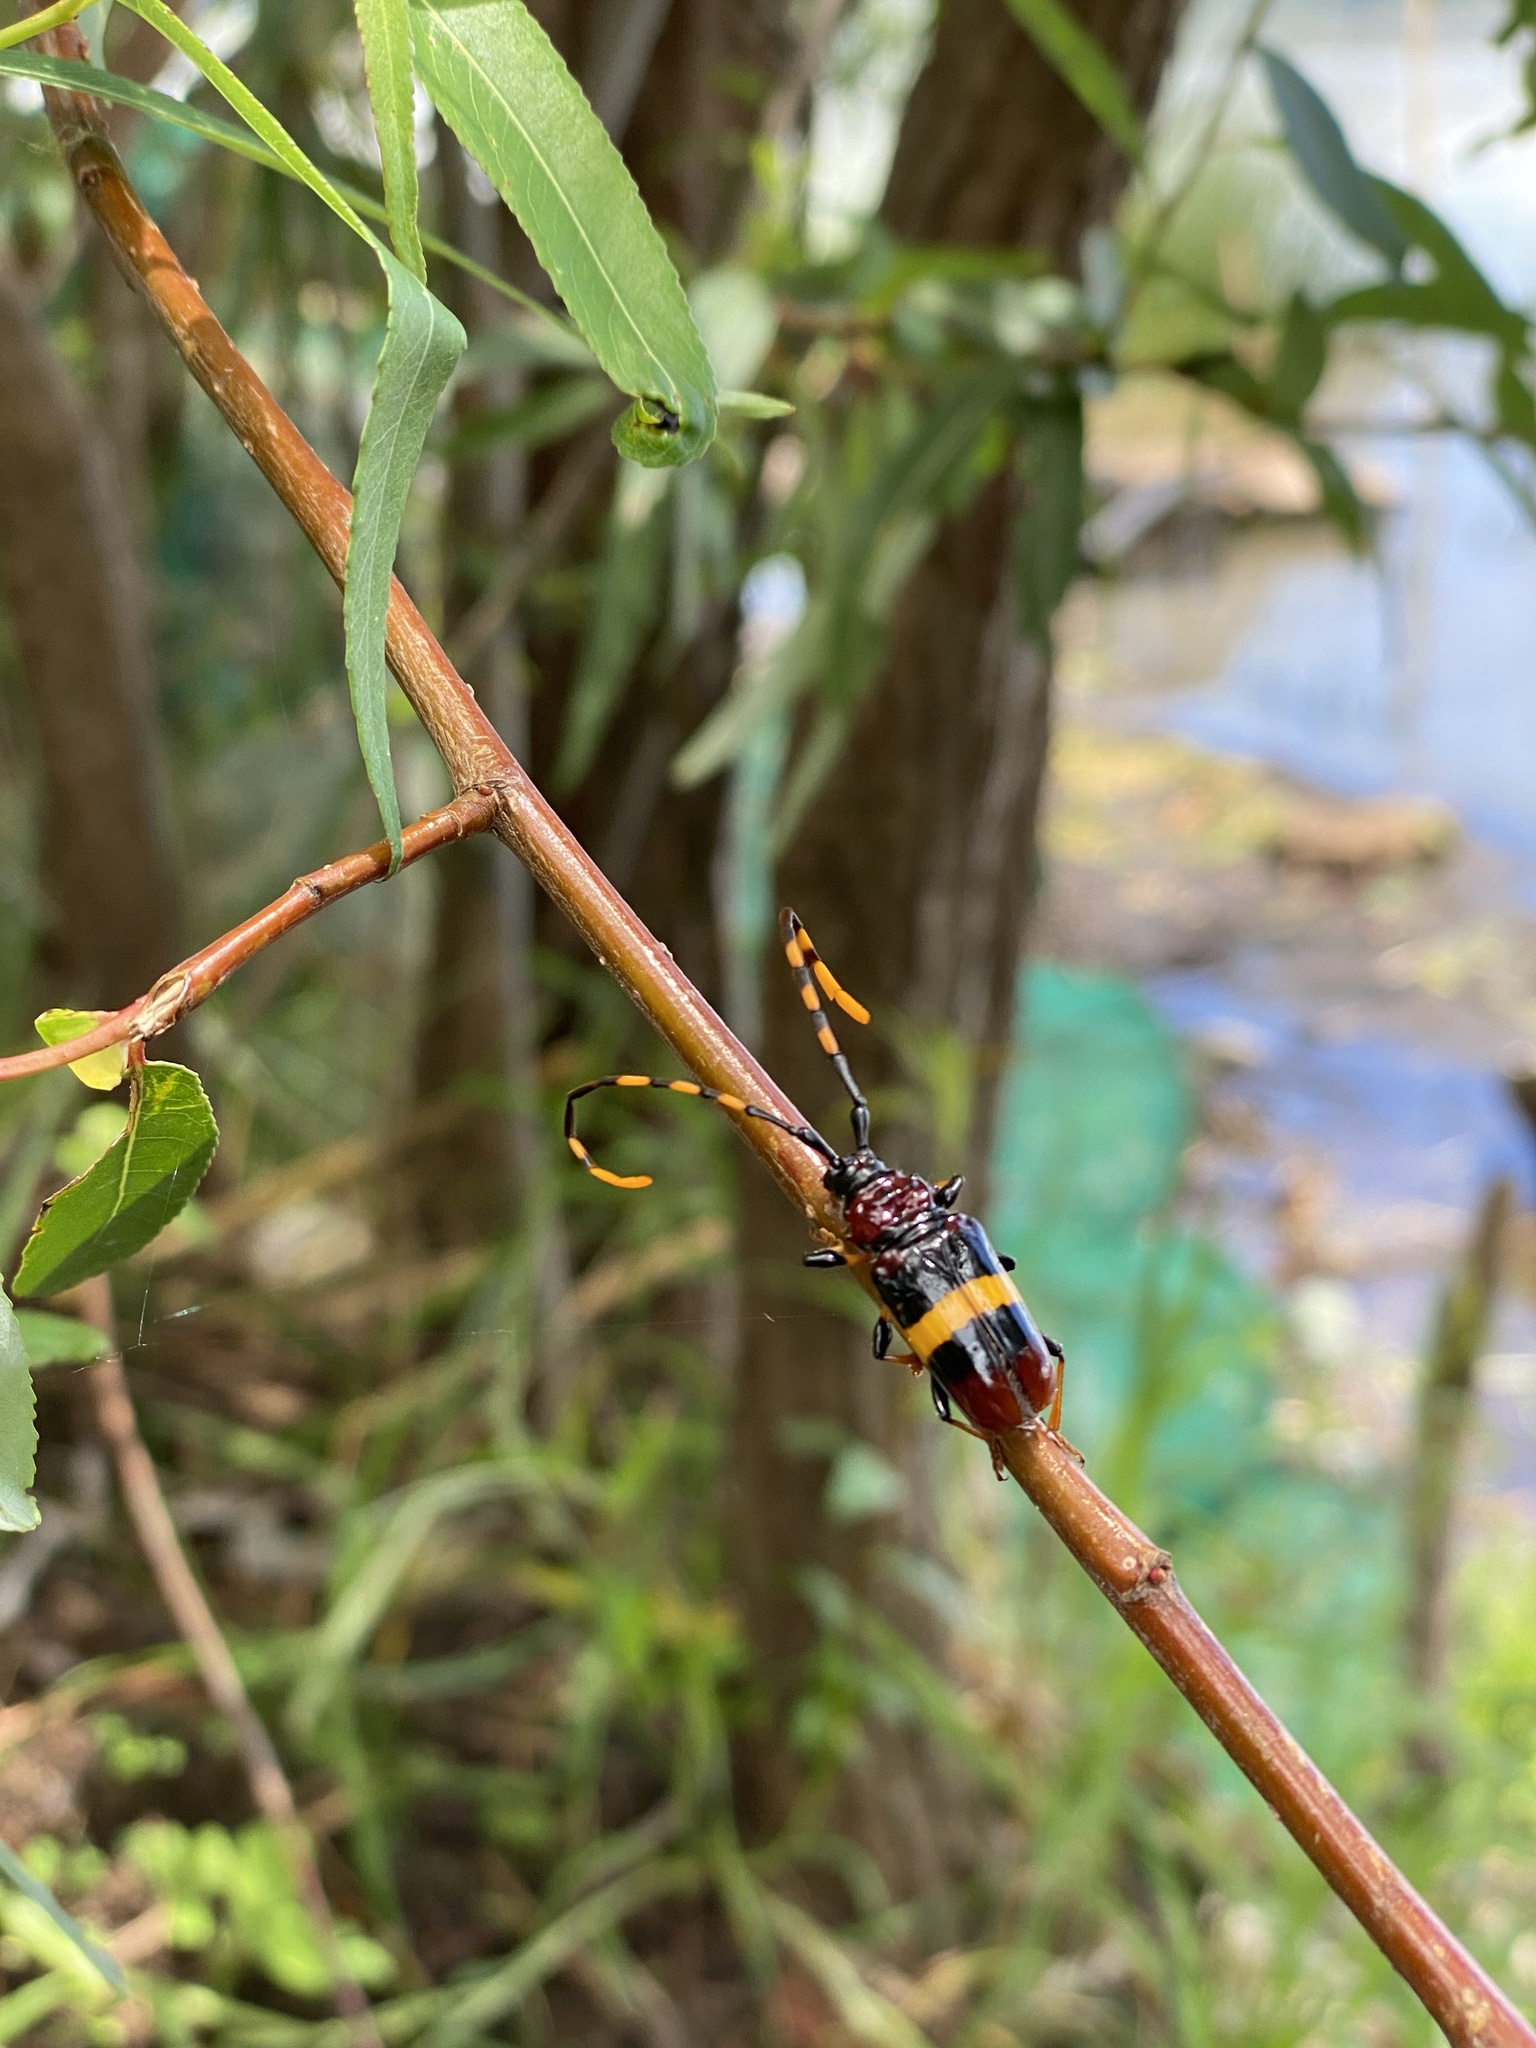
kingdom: Animalia
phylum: Arthropoda
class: Insecta
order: Coleoptera
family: Cerambycidae
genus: Trachyderes
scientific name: Trachyderes elegans
